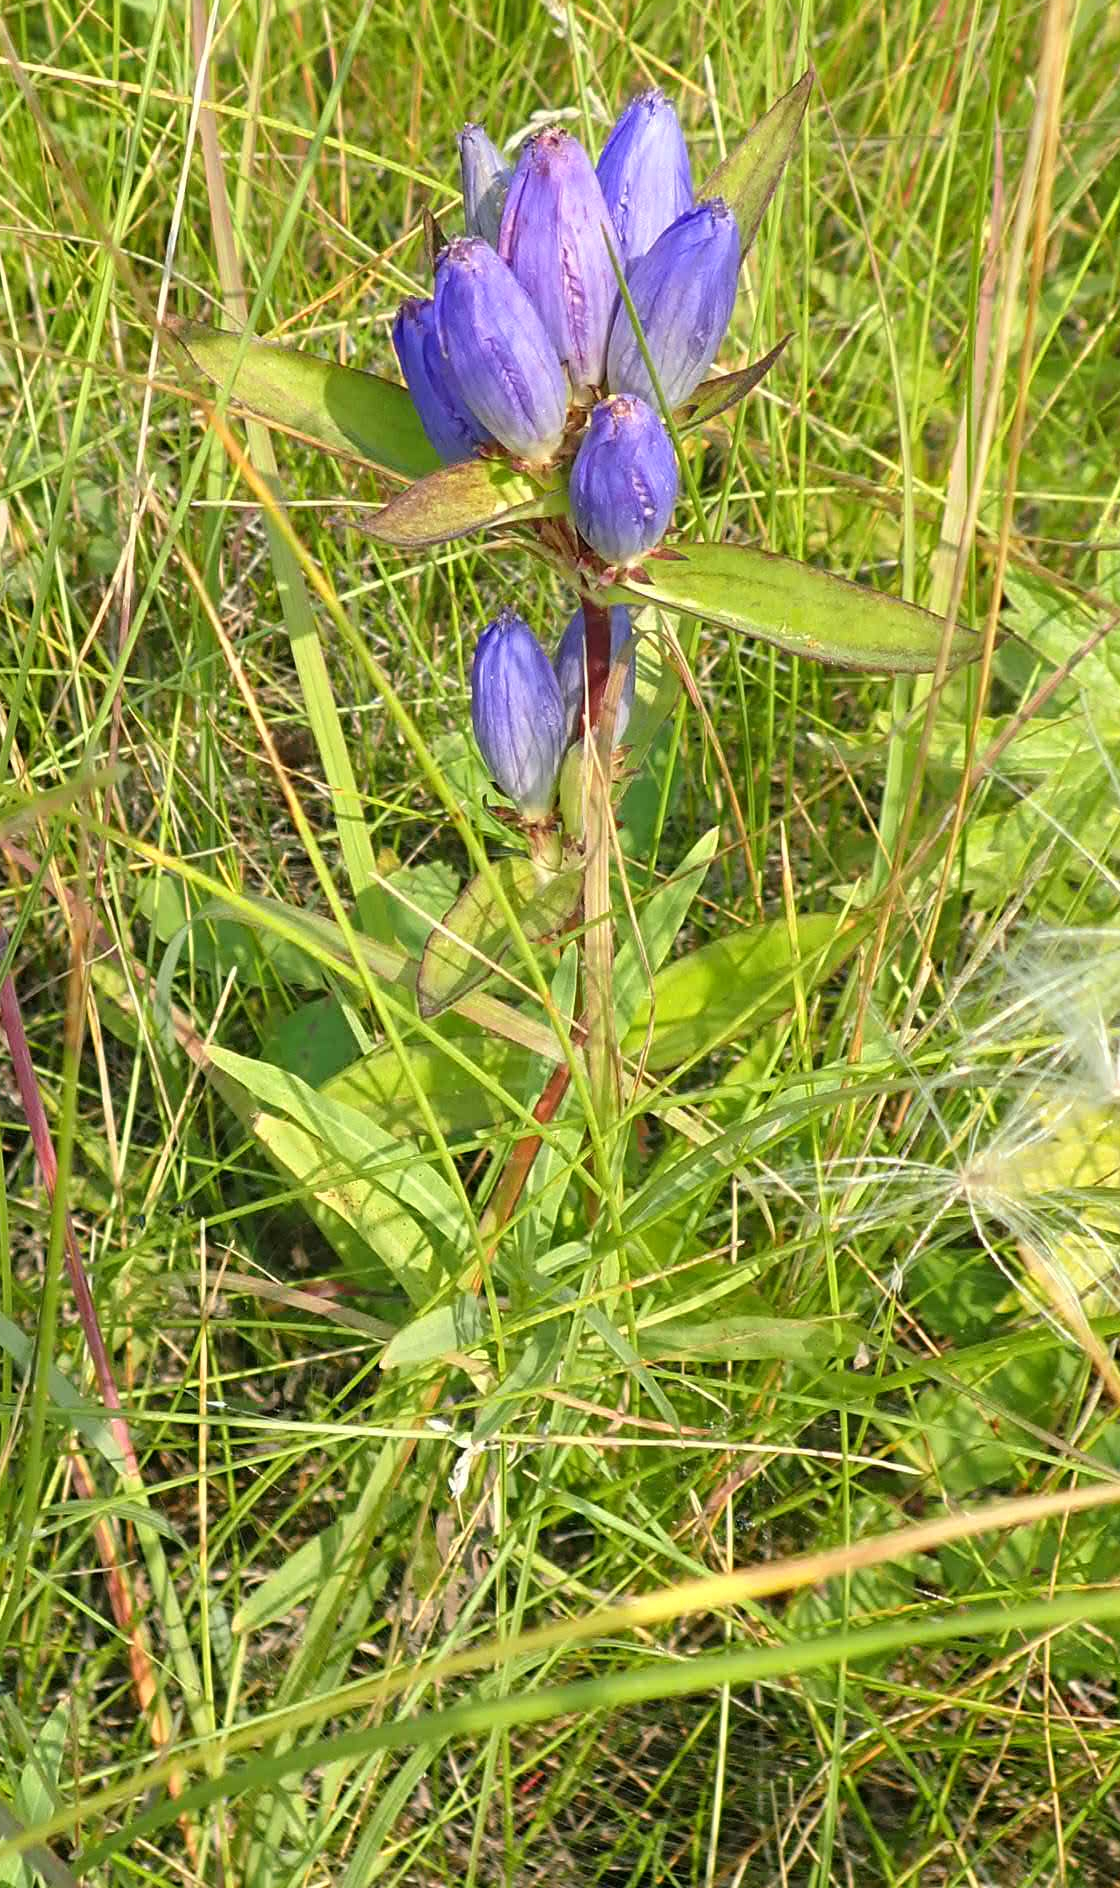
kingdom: Plantae
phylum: Tracheophyta
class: Magnoliopsida
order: Gentianales
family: Gentianaceae
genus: Gentiana
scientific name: Gentiana andrewsii
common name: Bottle gentian
